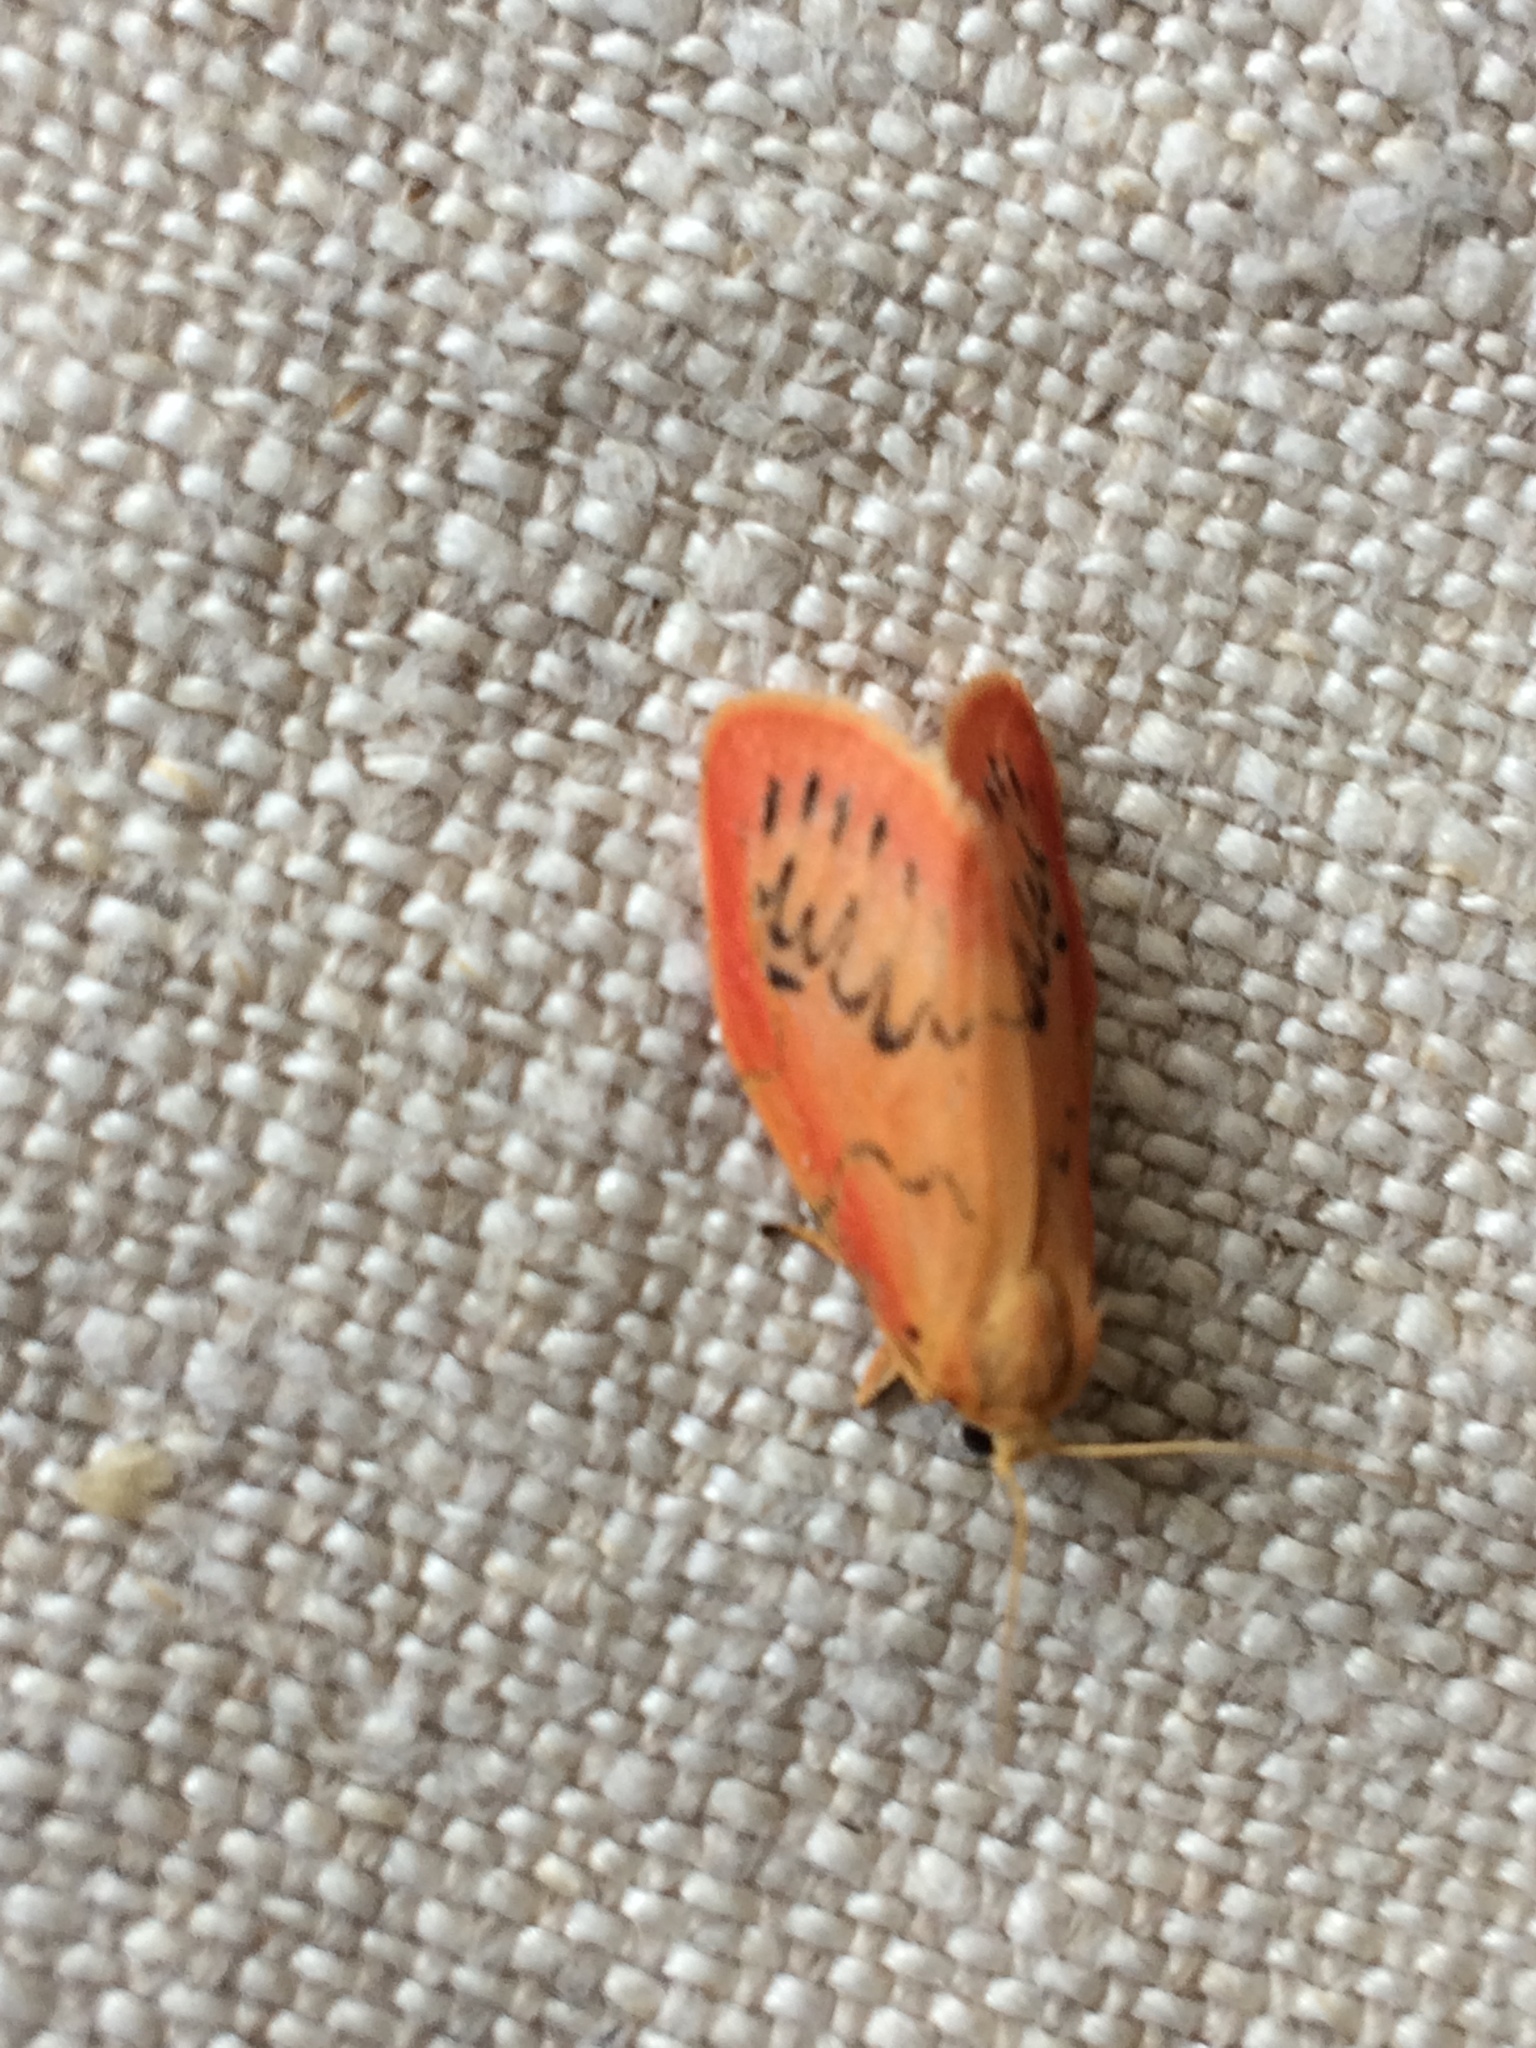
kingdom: Animalia
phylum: Arthropoda
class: Insecta
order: Lepidoptera
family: Erebidae
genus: Miltochrista
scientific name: Miltochrista miniata
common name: Rosy footman
